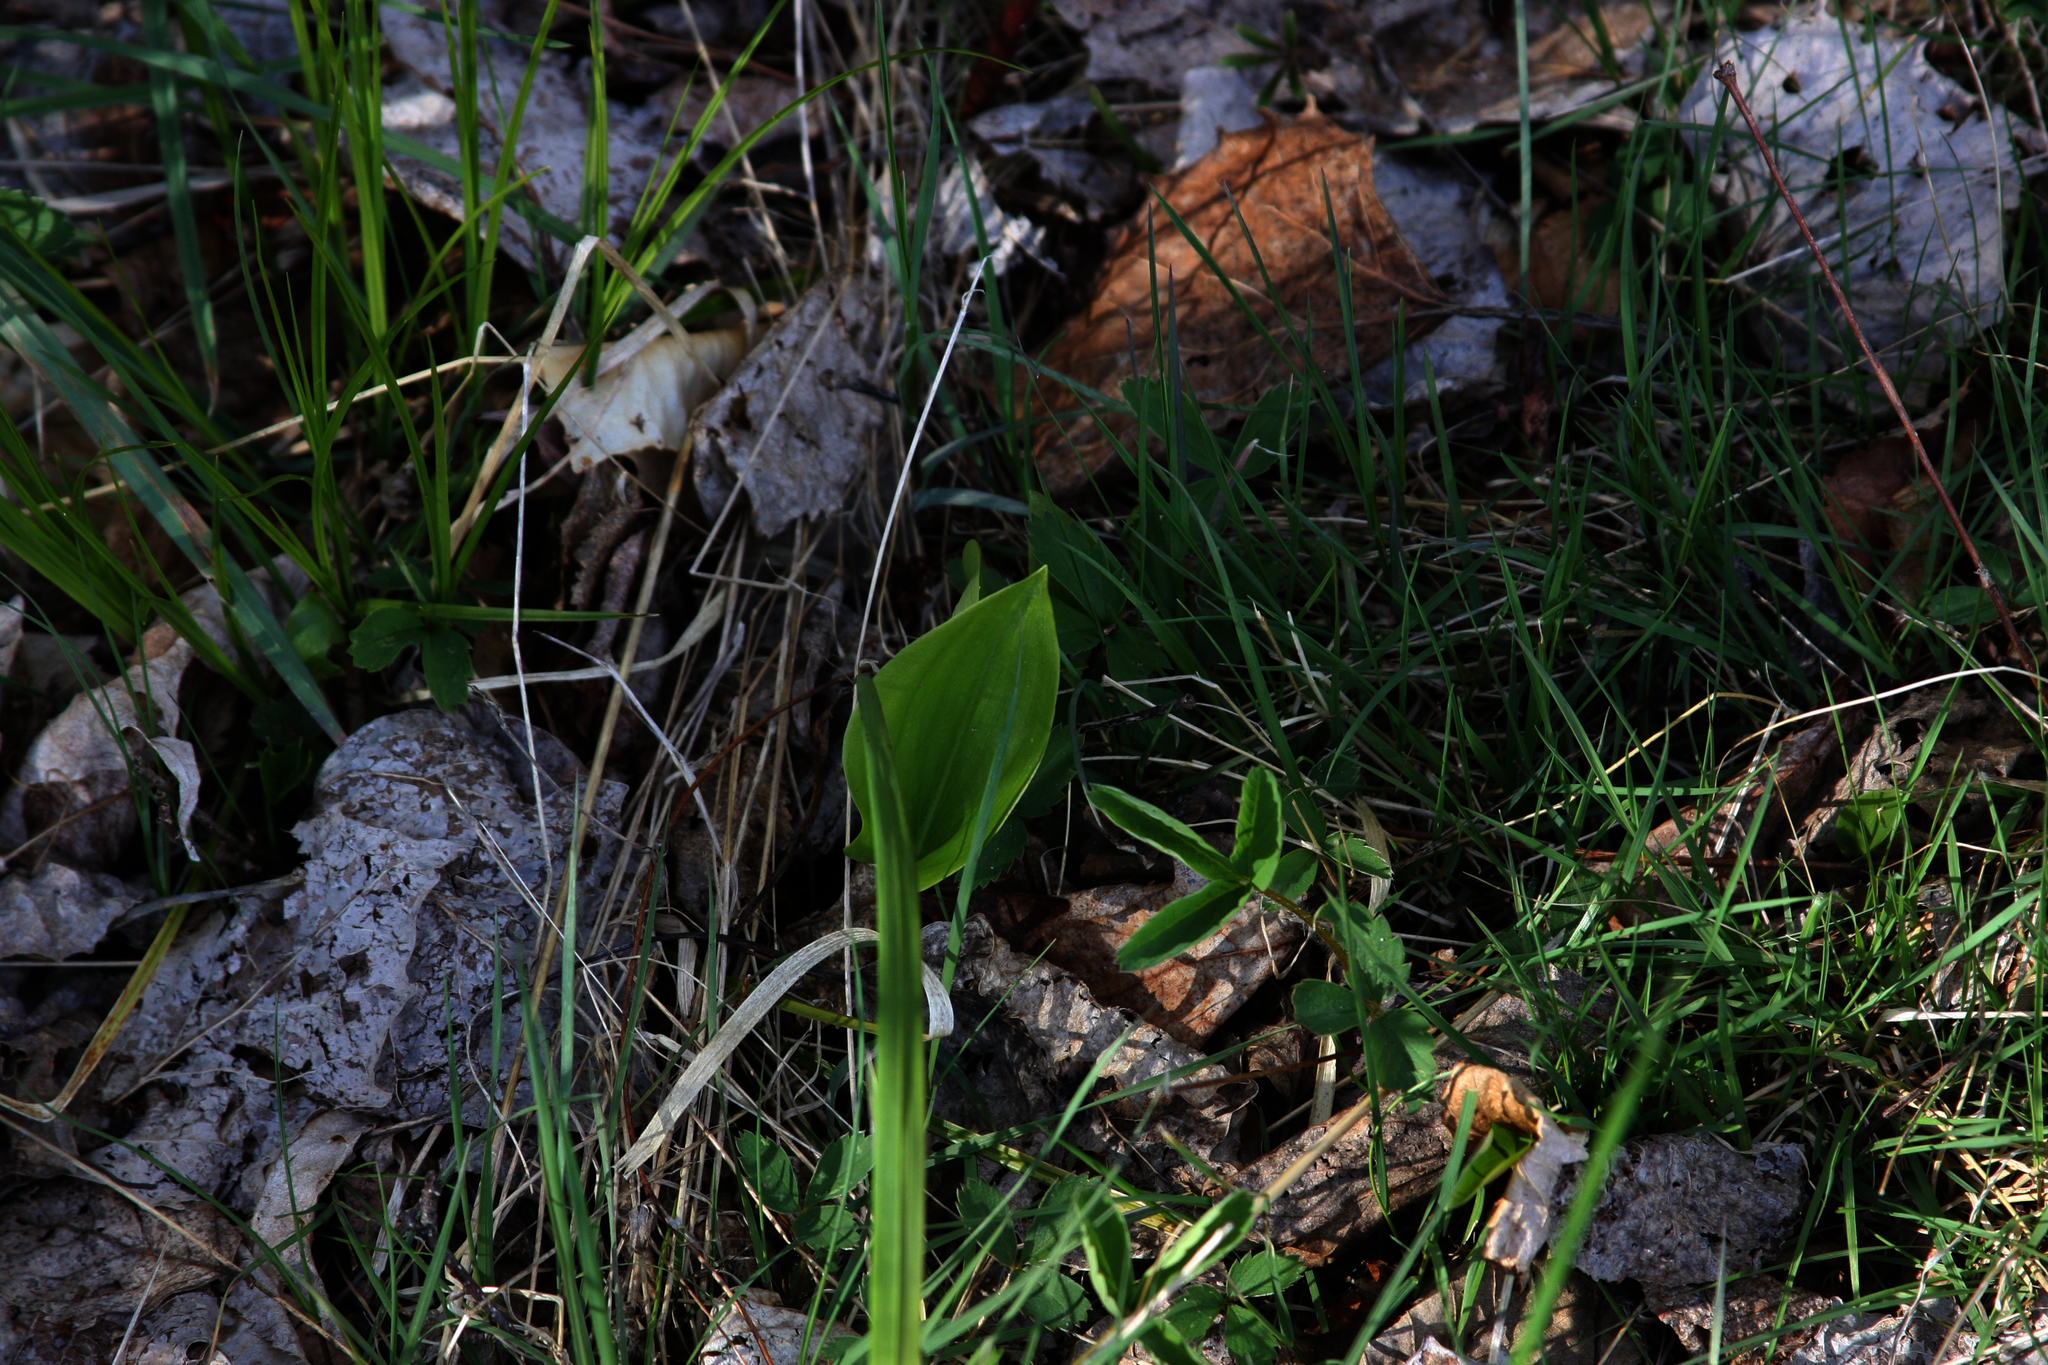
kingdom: Plantae
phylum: Tracheophyta
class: Liliopsida
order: Asparagales
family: Asparagaceae
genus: Maianthemum
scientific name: Maianthemum canadense
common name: False lily-of-the-valley
